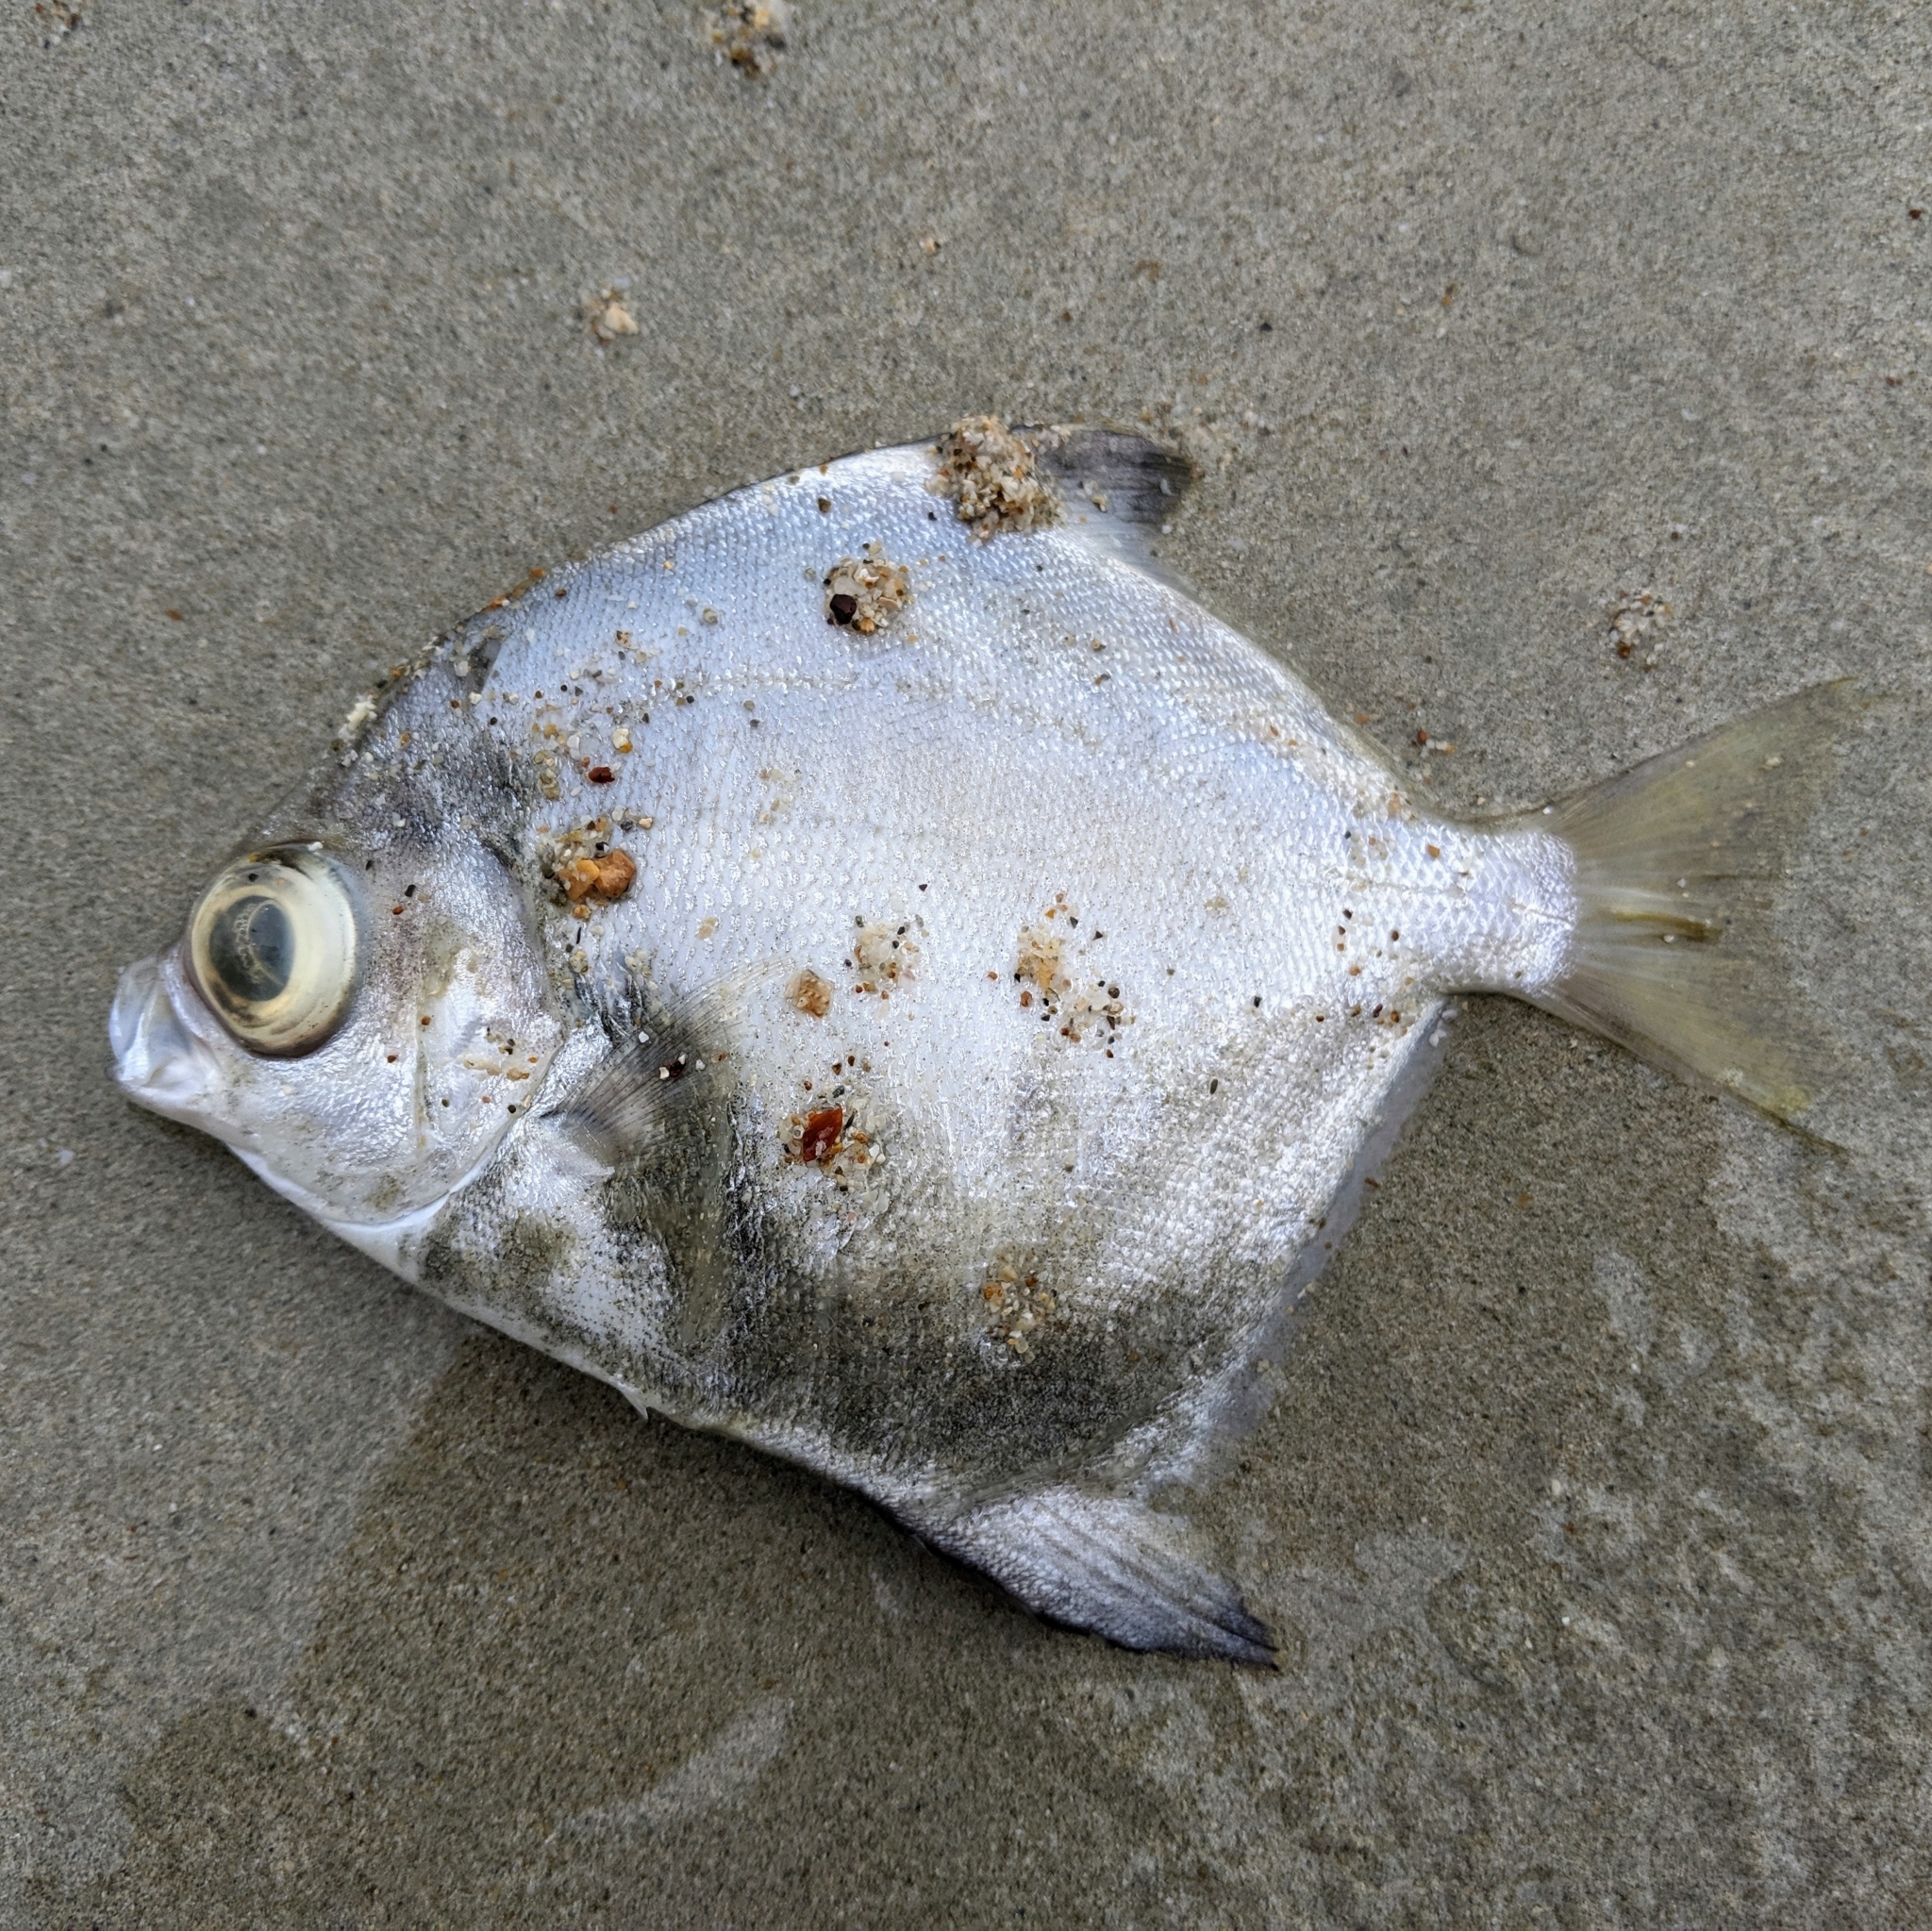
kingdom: Animalia
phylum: Chordata
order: Perciformes
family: Monodactylidae
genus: Monodactylus
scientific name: Monodactylus argenteus
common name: Silver moony
